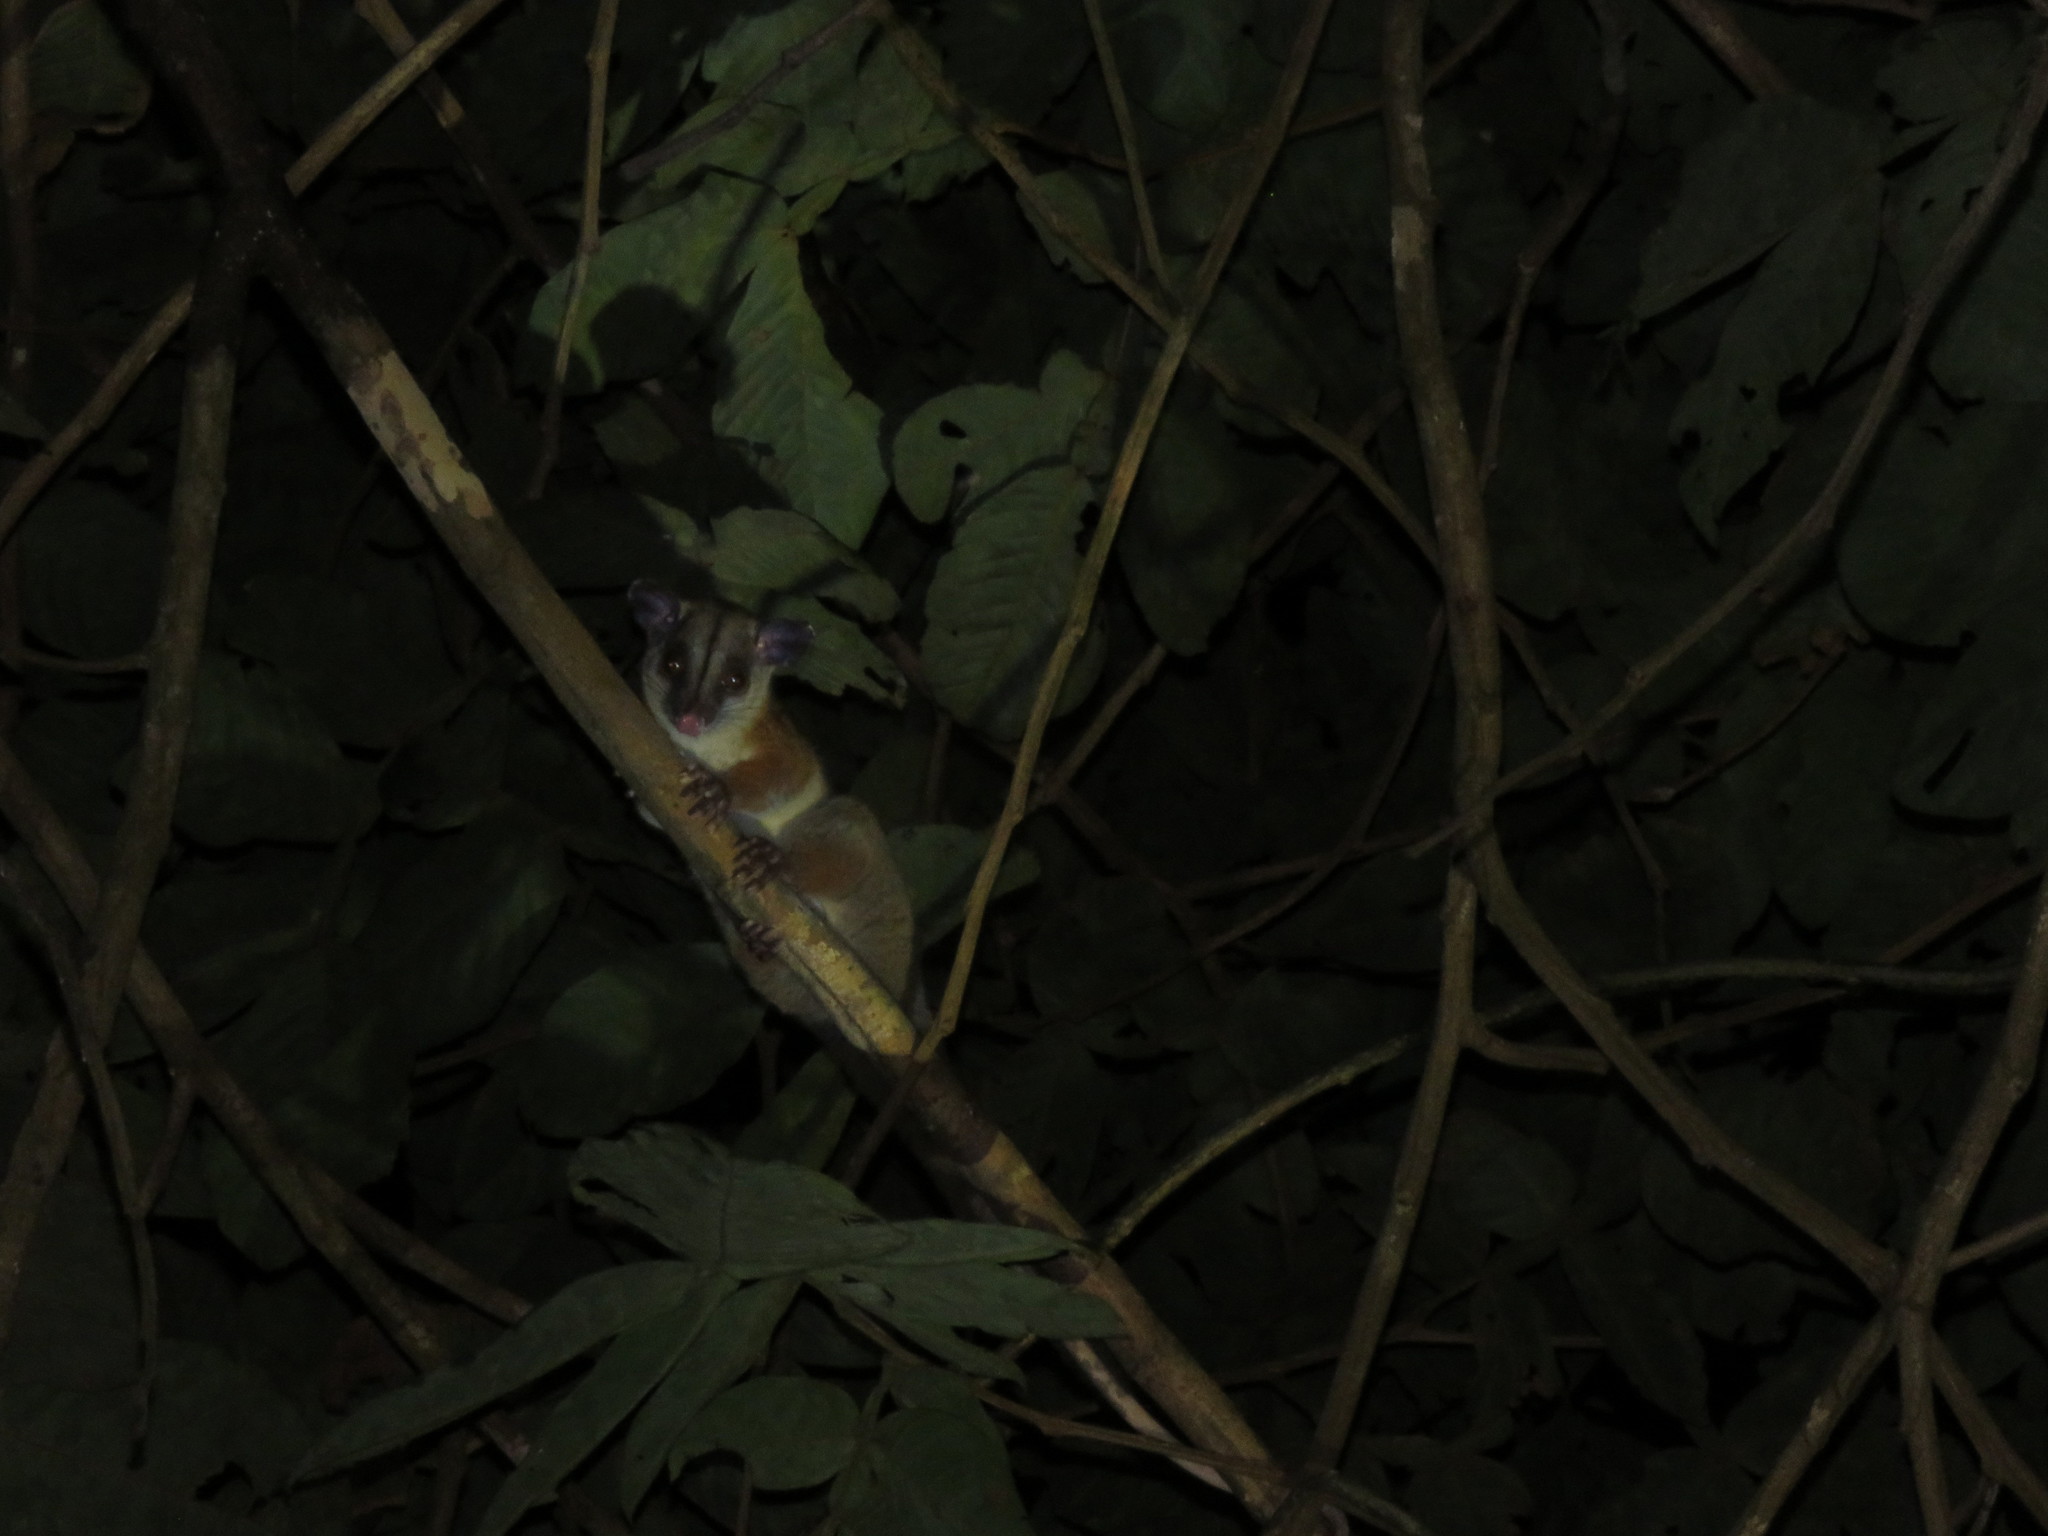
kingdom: Animalia
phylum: Chordata
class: Mammalia
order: Didelphimorphia
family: Didelphidae
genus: Caluromys
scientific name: Caluromys lanatus
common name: Brown-eared woolly opossum
